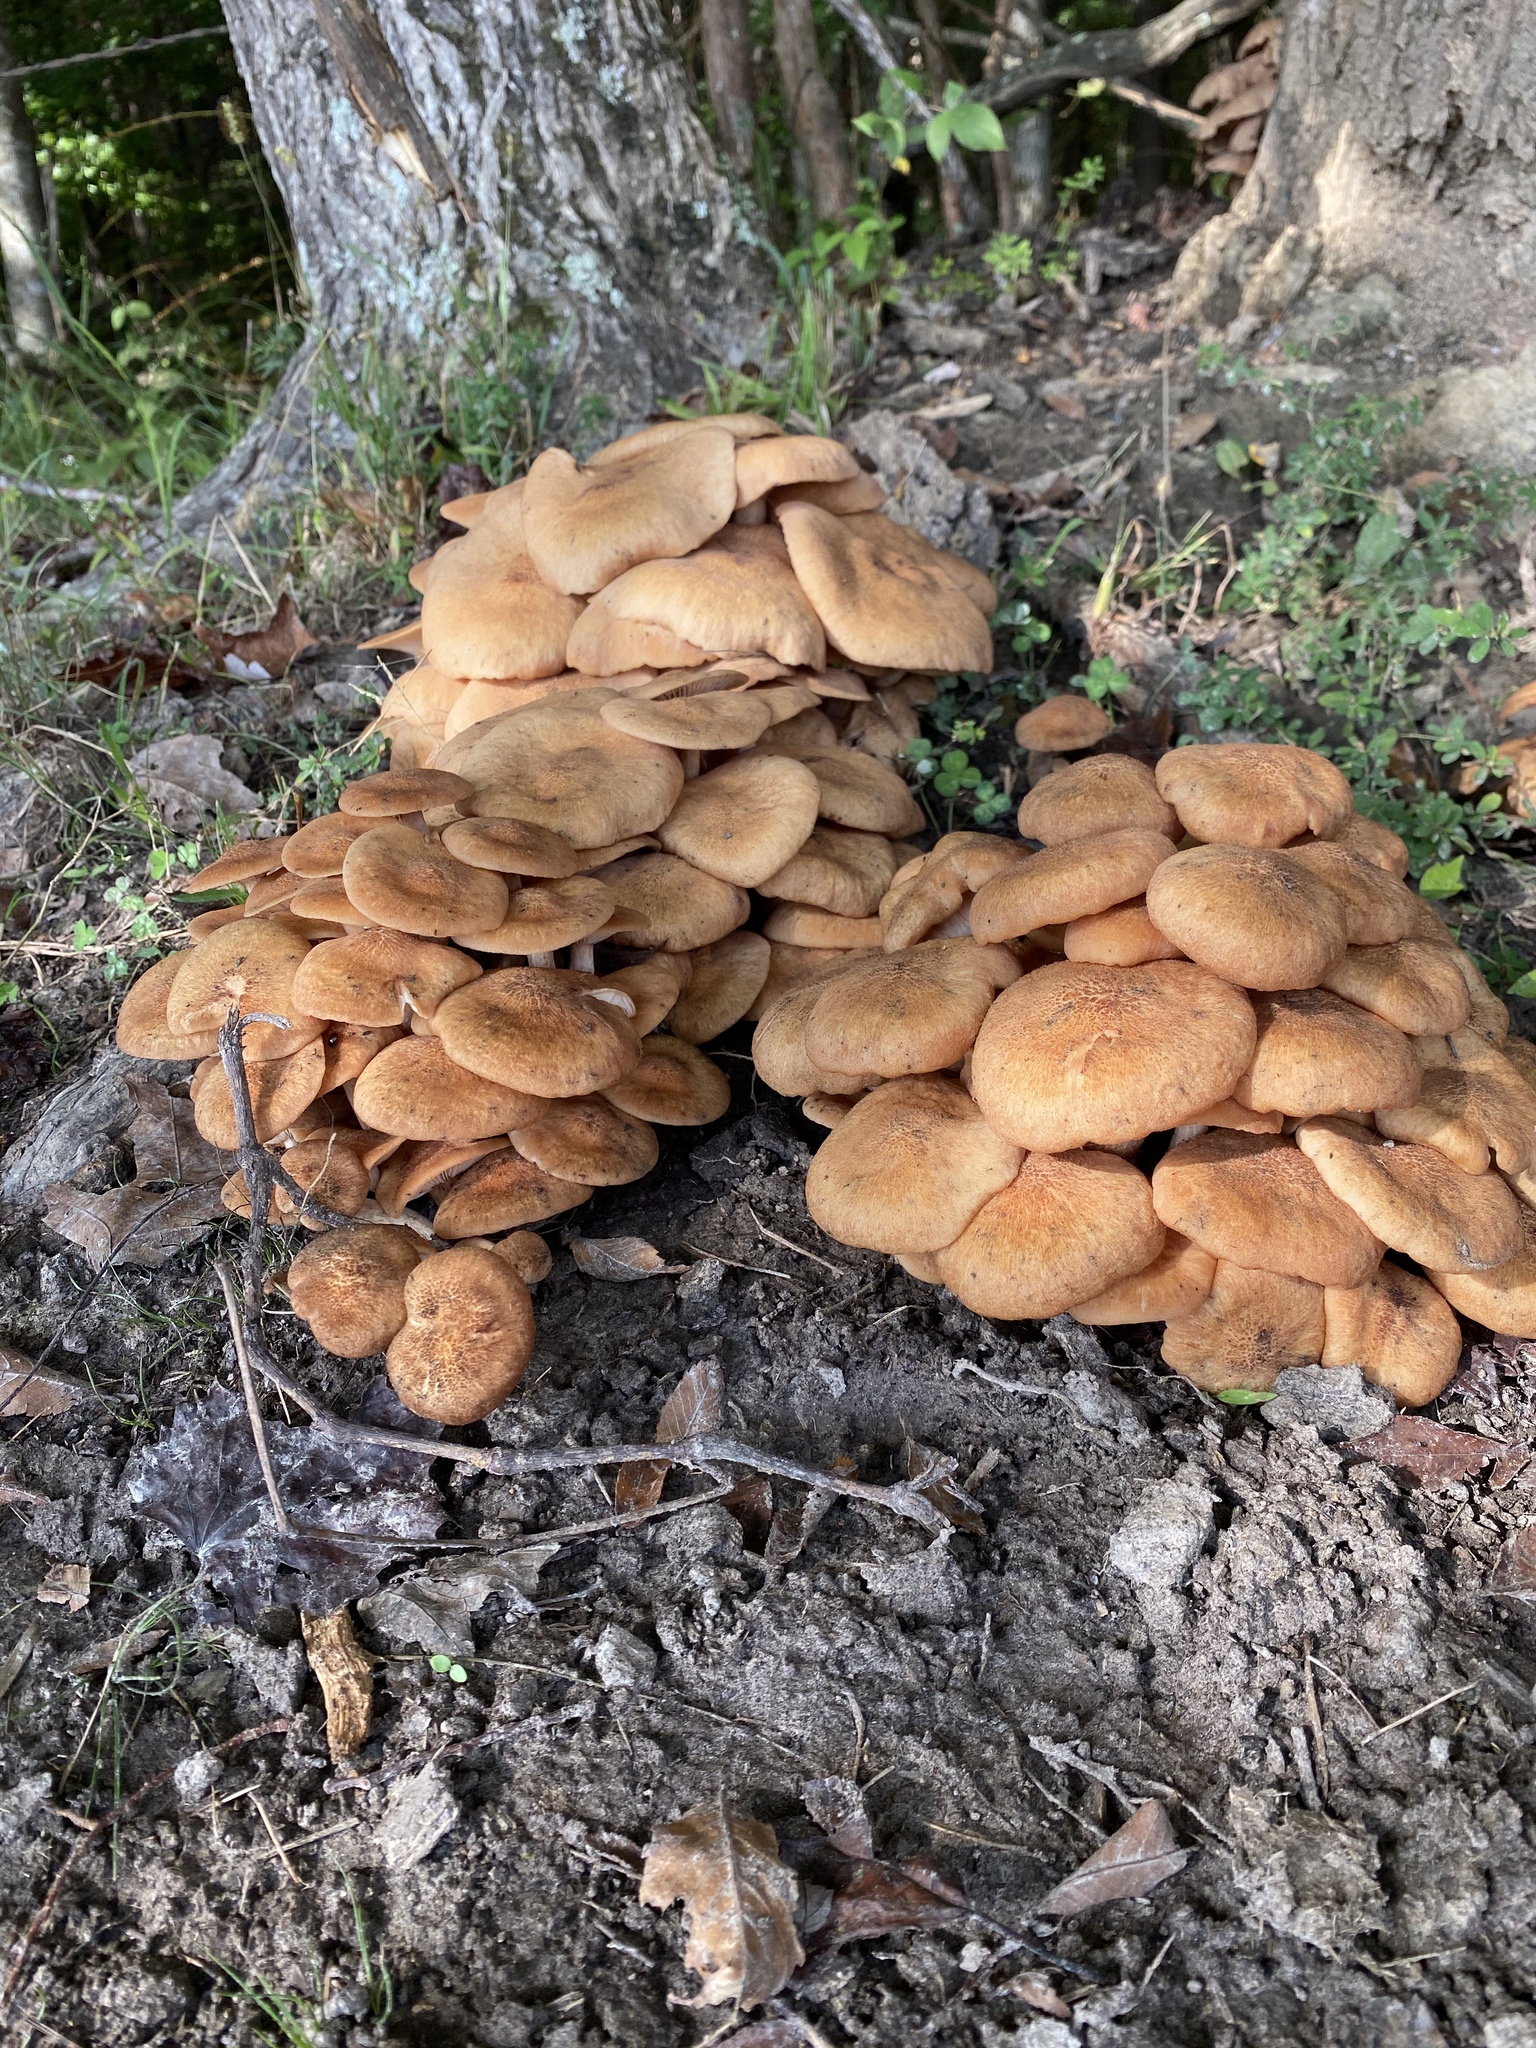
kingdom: Fungi
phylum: Basidiomycota
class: Agaricomycetes
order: Agaricales
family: Physalacriaceae
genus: Desarmillaria
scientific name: Desarmillaria caespitosa
